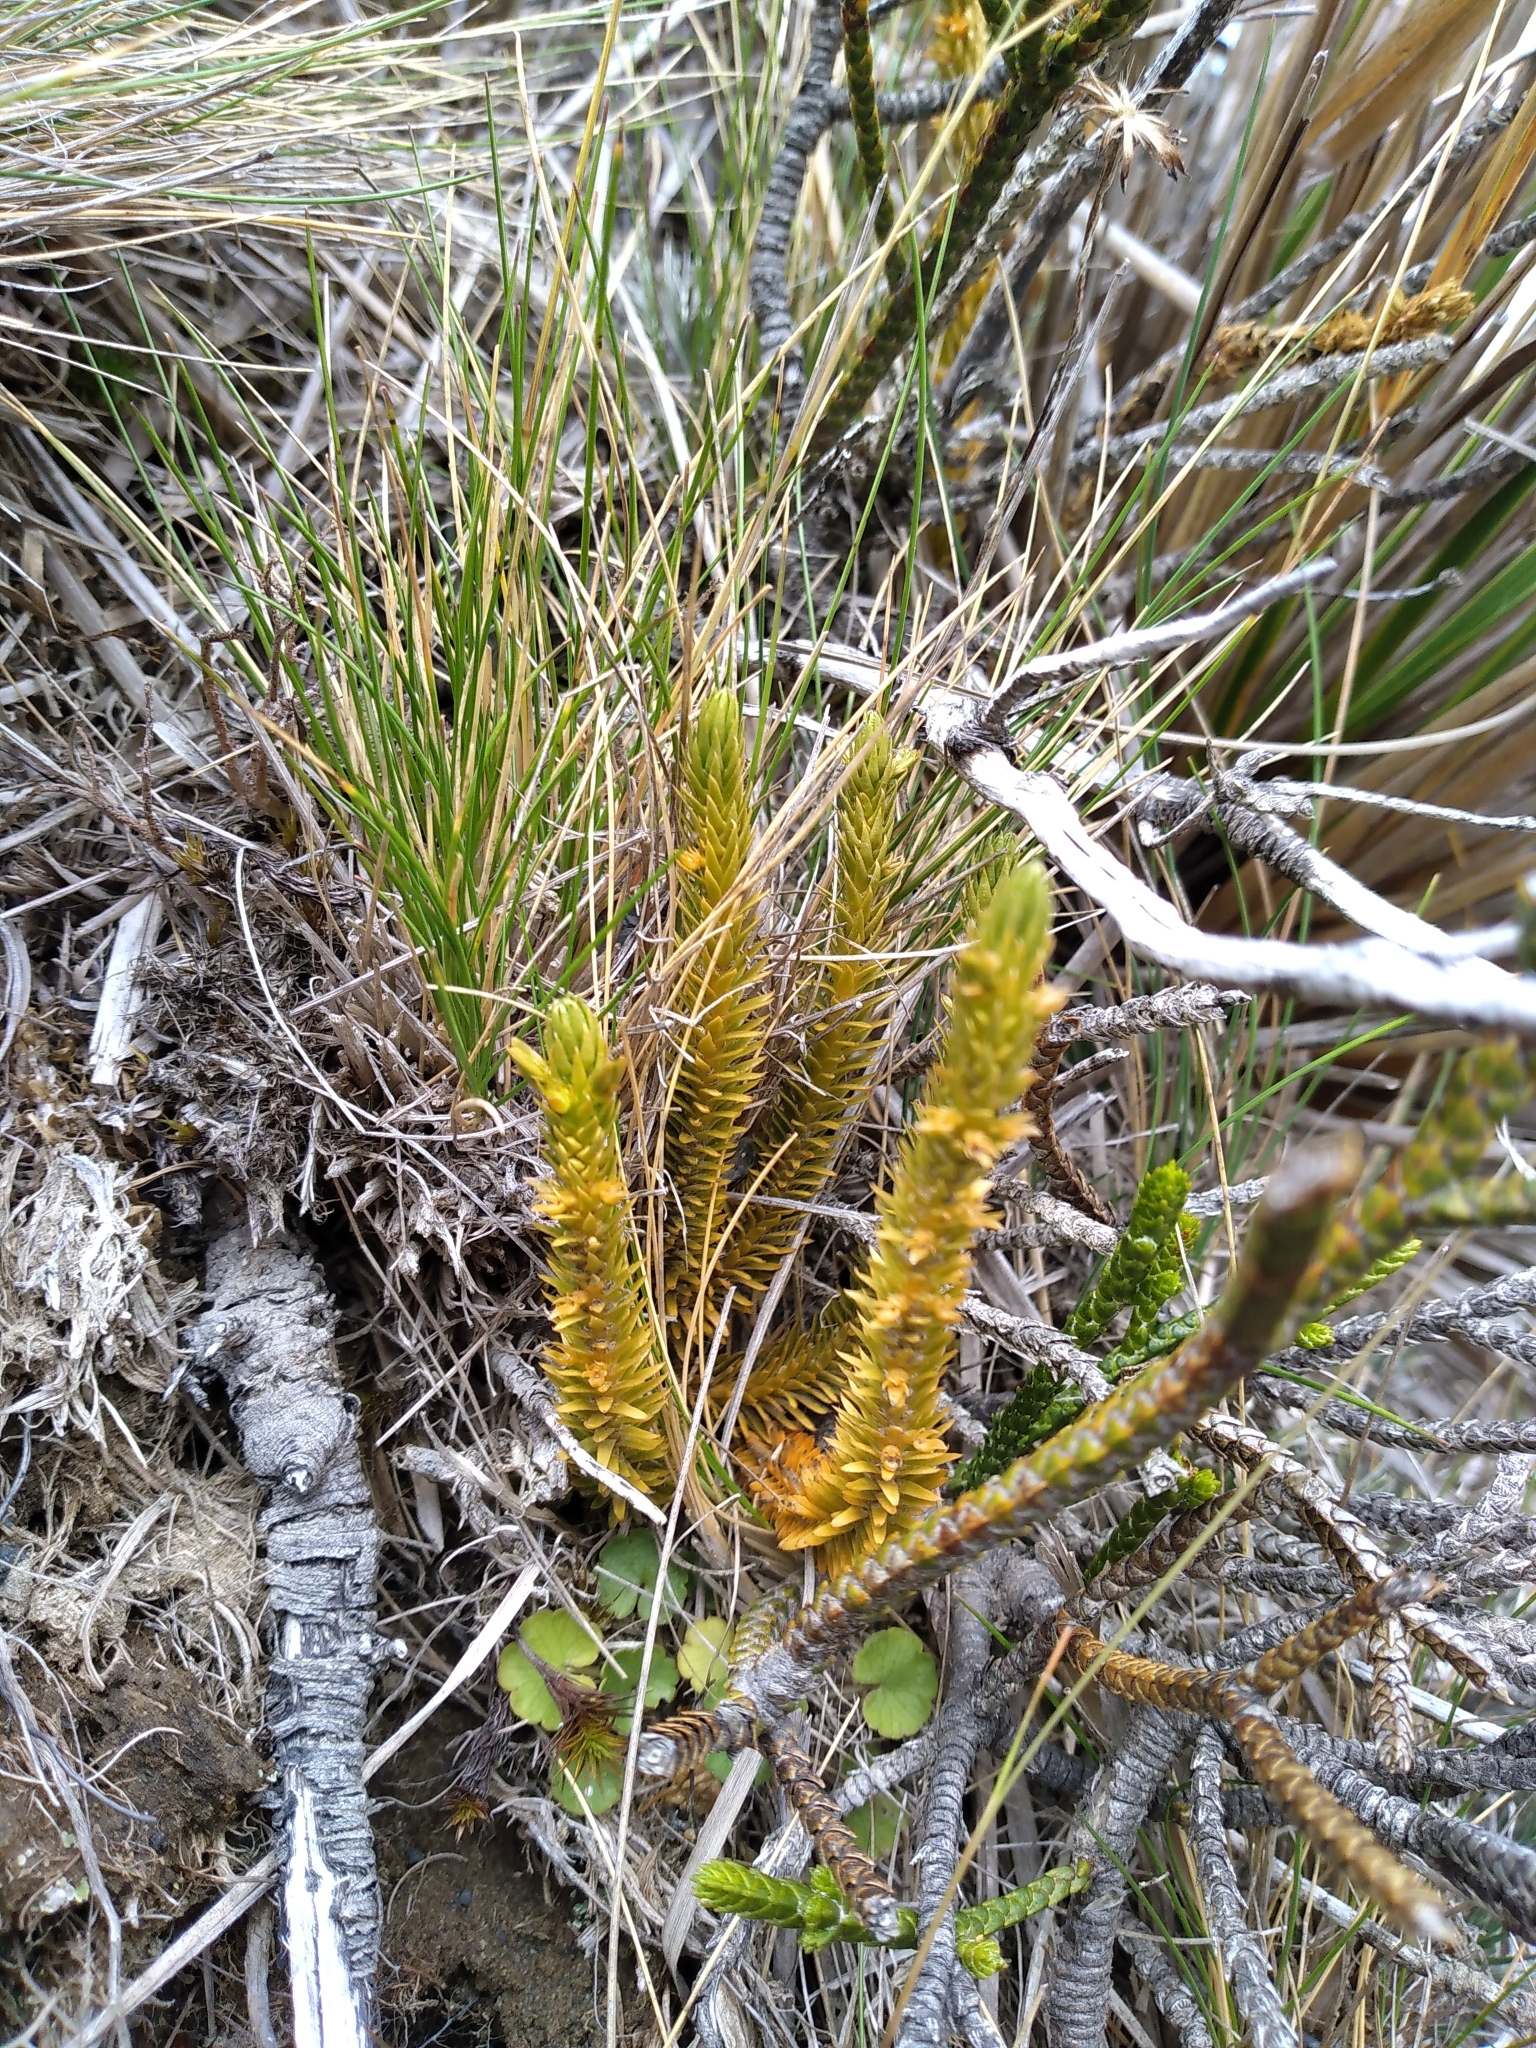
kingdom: Plantae
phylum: Tracheophyta
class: Lycopodiopsida
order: Lycopodiales
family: Lycopodiaceae
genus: Huperzia
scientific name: Huperzia australiana
